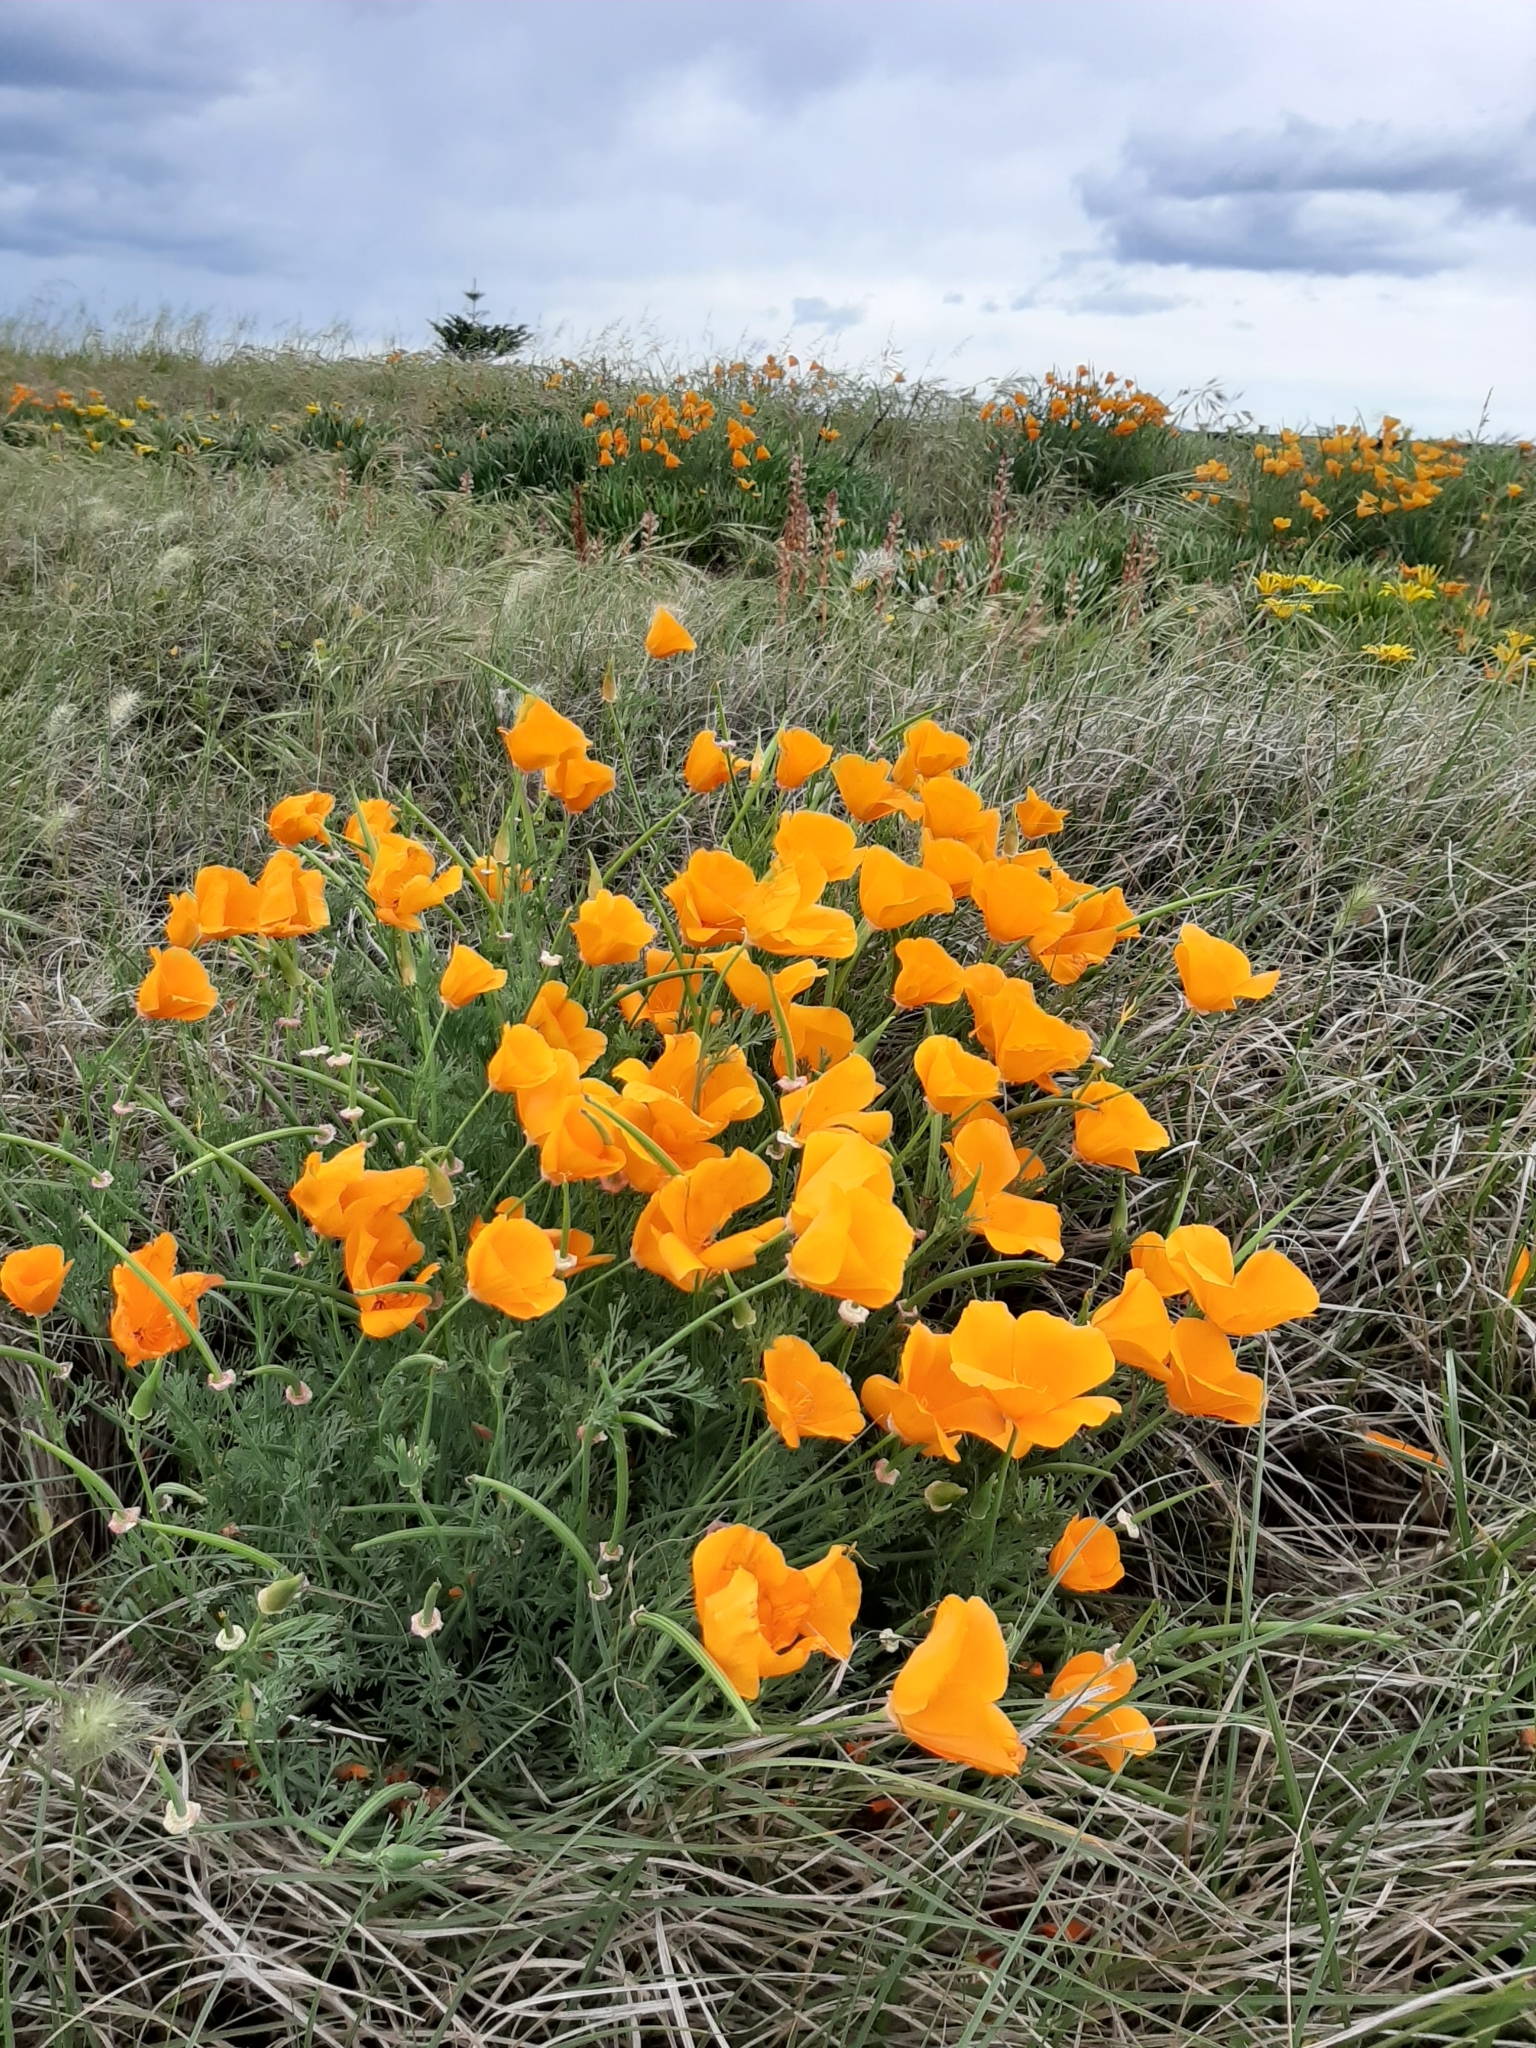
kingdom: Plantae
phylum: Tracheophyta
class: Magnoliopsida
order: Ranunculales
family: Papaveraceae
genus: Eschscholzia
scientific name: Eschscholzia californica
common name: California poppy
